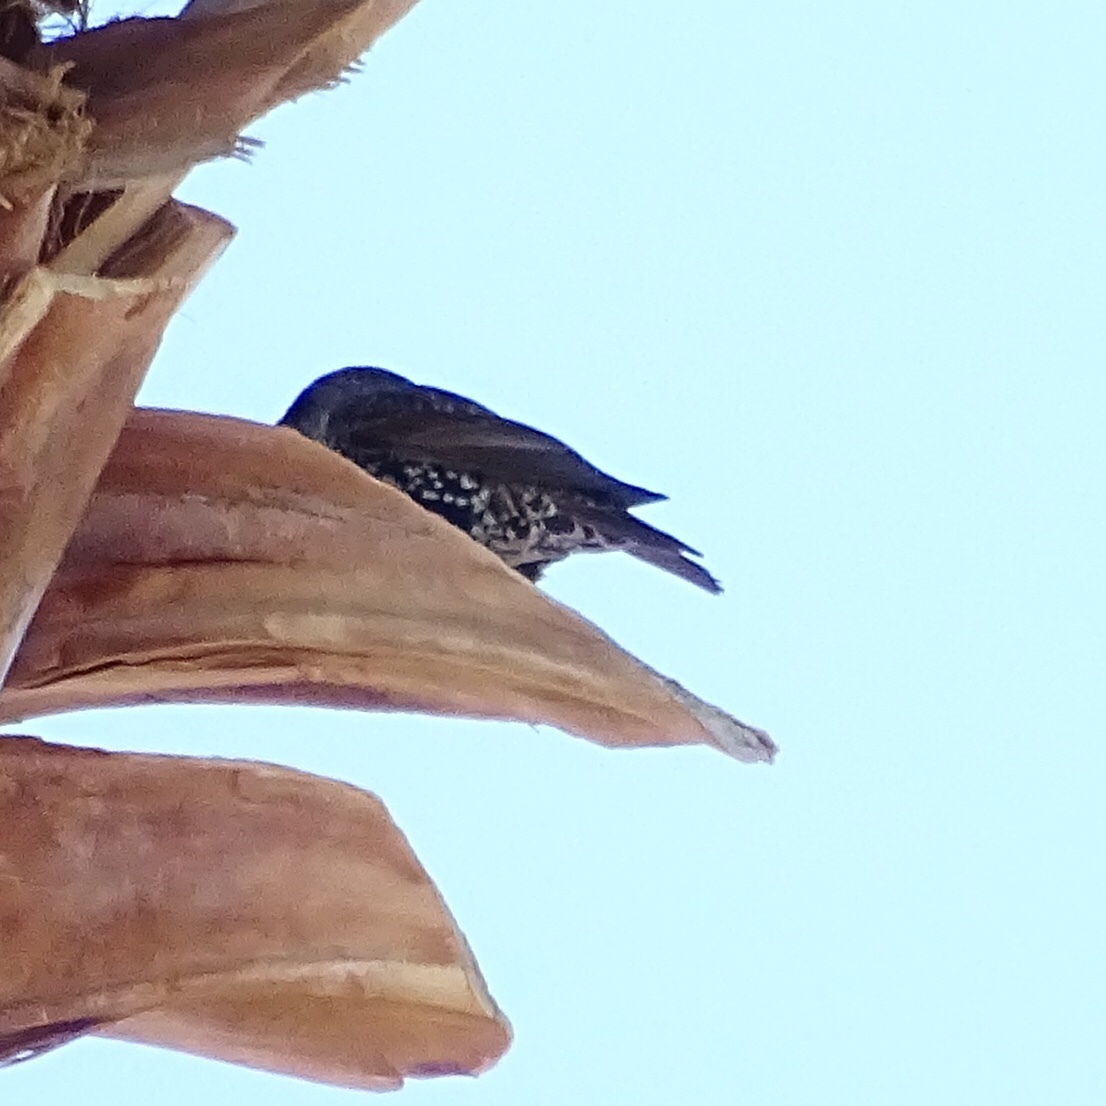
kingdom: Animalia
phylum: Chordata
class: Aves
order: Passeriformes
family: Sturnidae
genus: Sturnus
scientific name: Sturnus vulgaris
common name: Common starling
